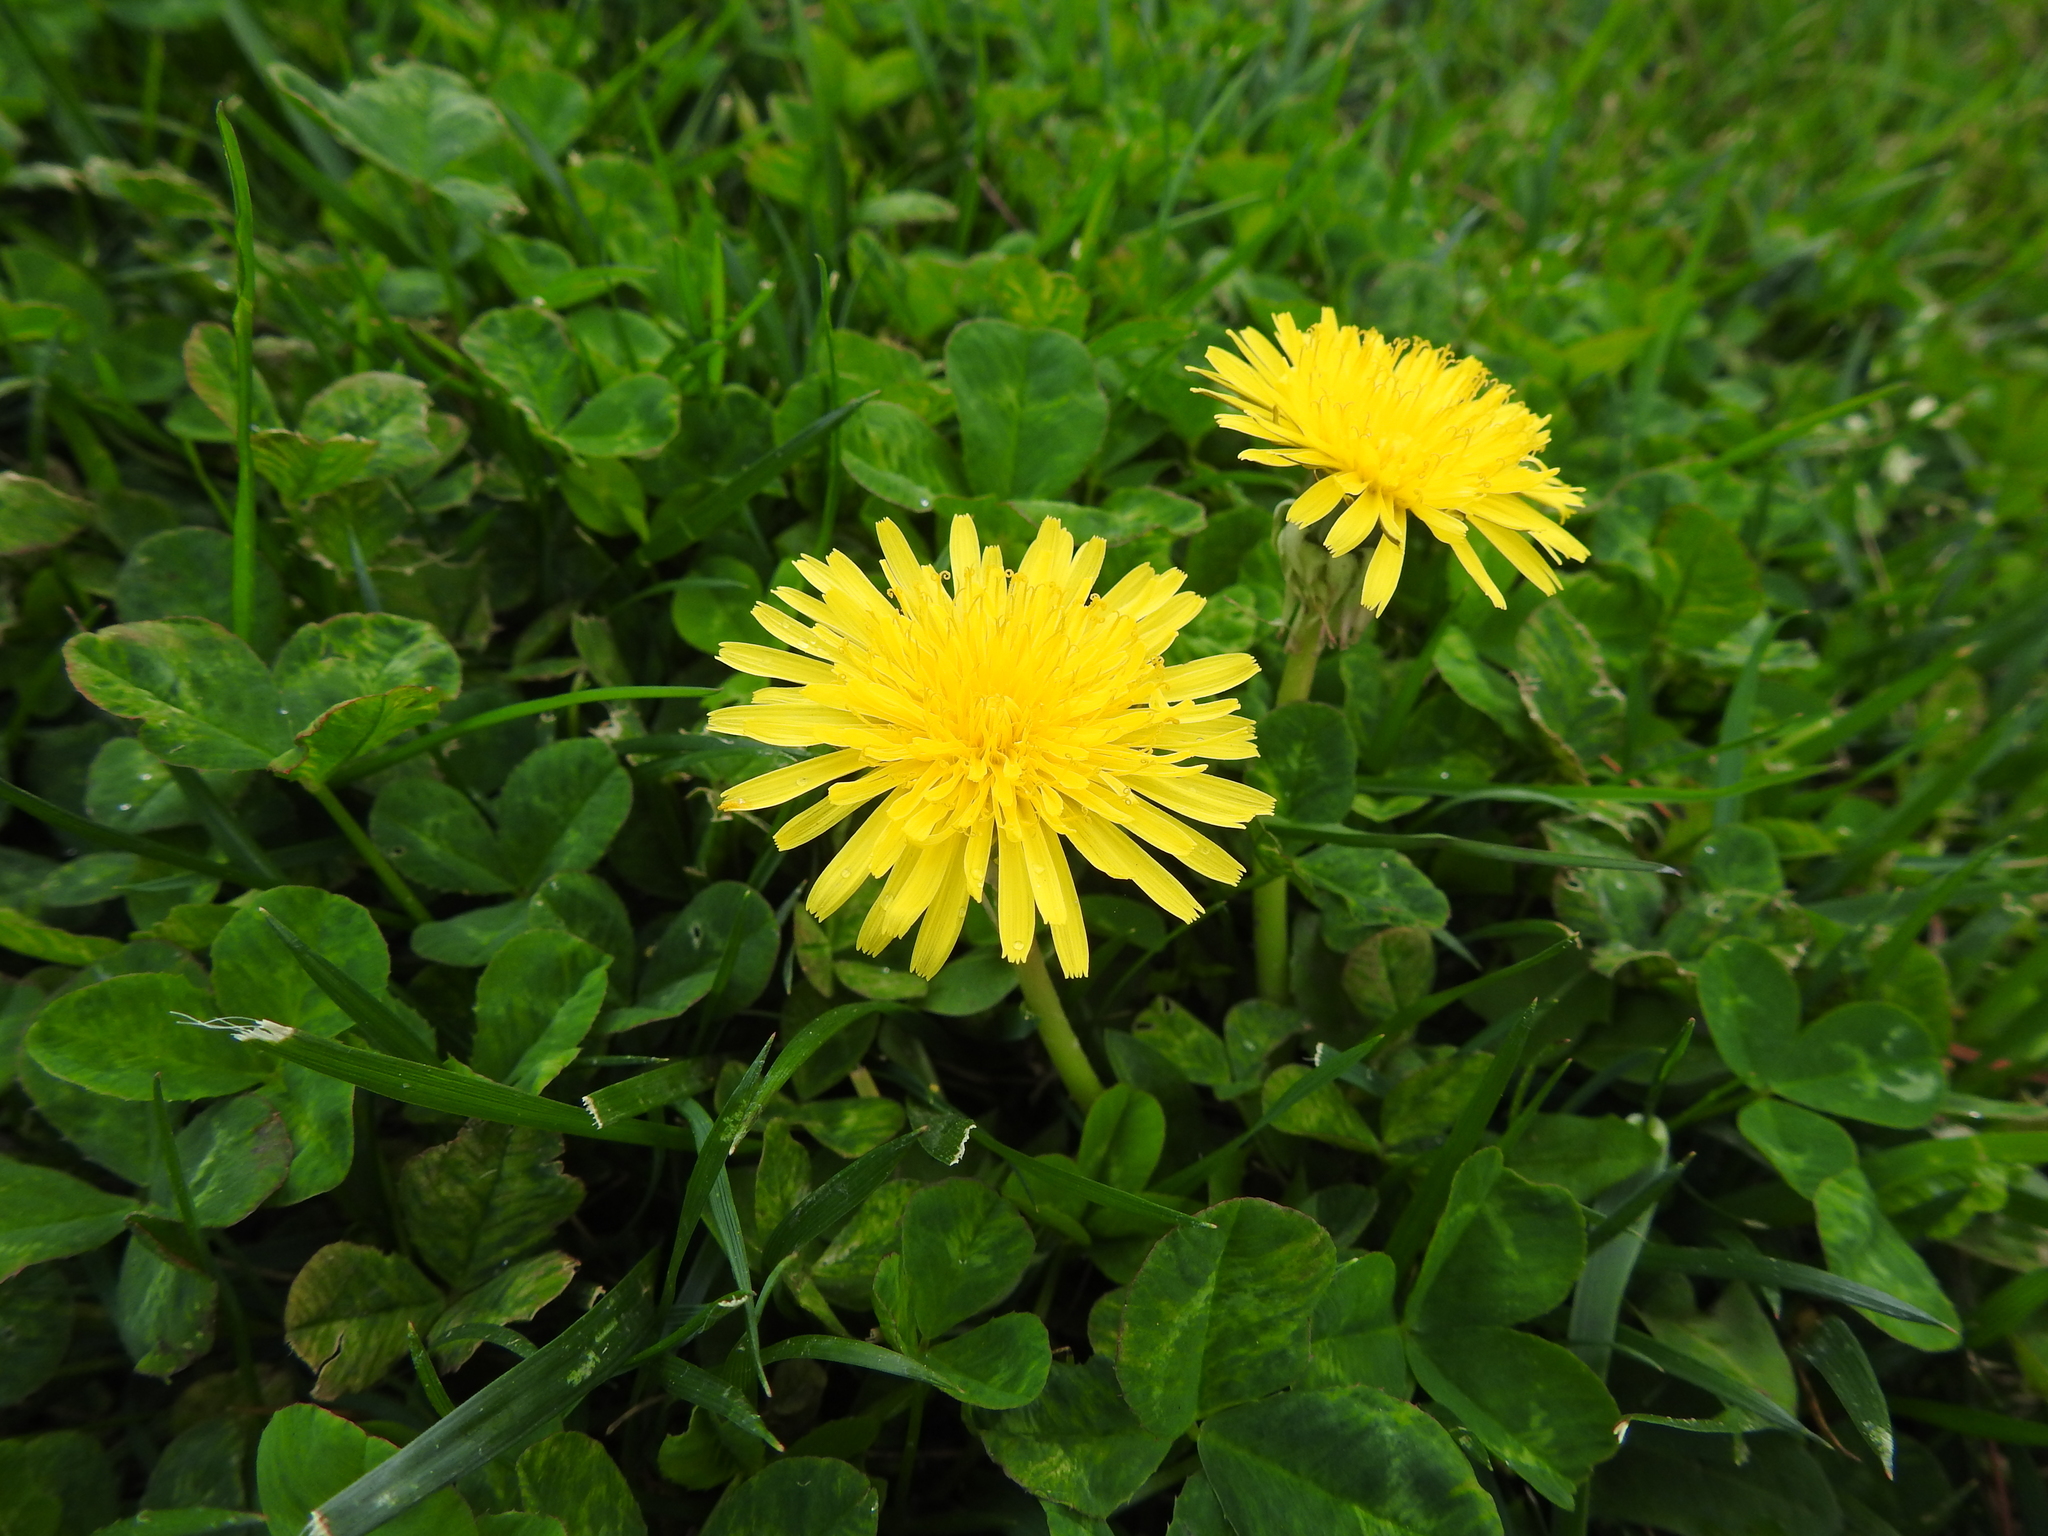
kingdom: Plantae
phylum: Tracheophyta
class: Magnoliopsida
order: Asterales
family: Asteraceae
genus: Taraxacum
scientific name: Taraxacum officinale
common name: Common dandelion
